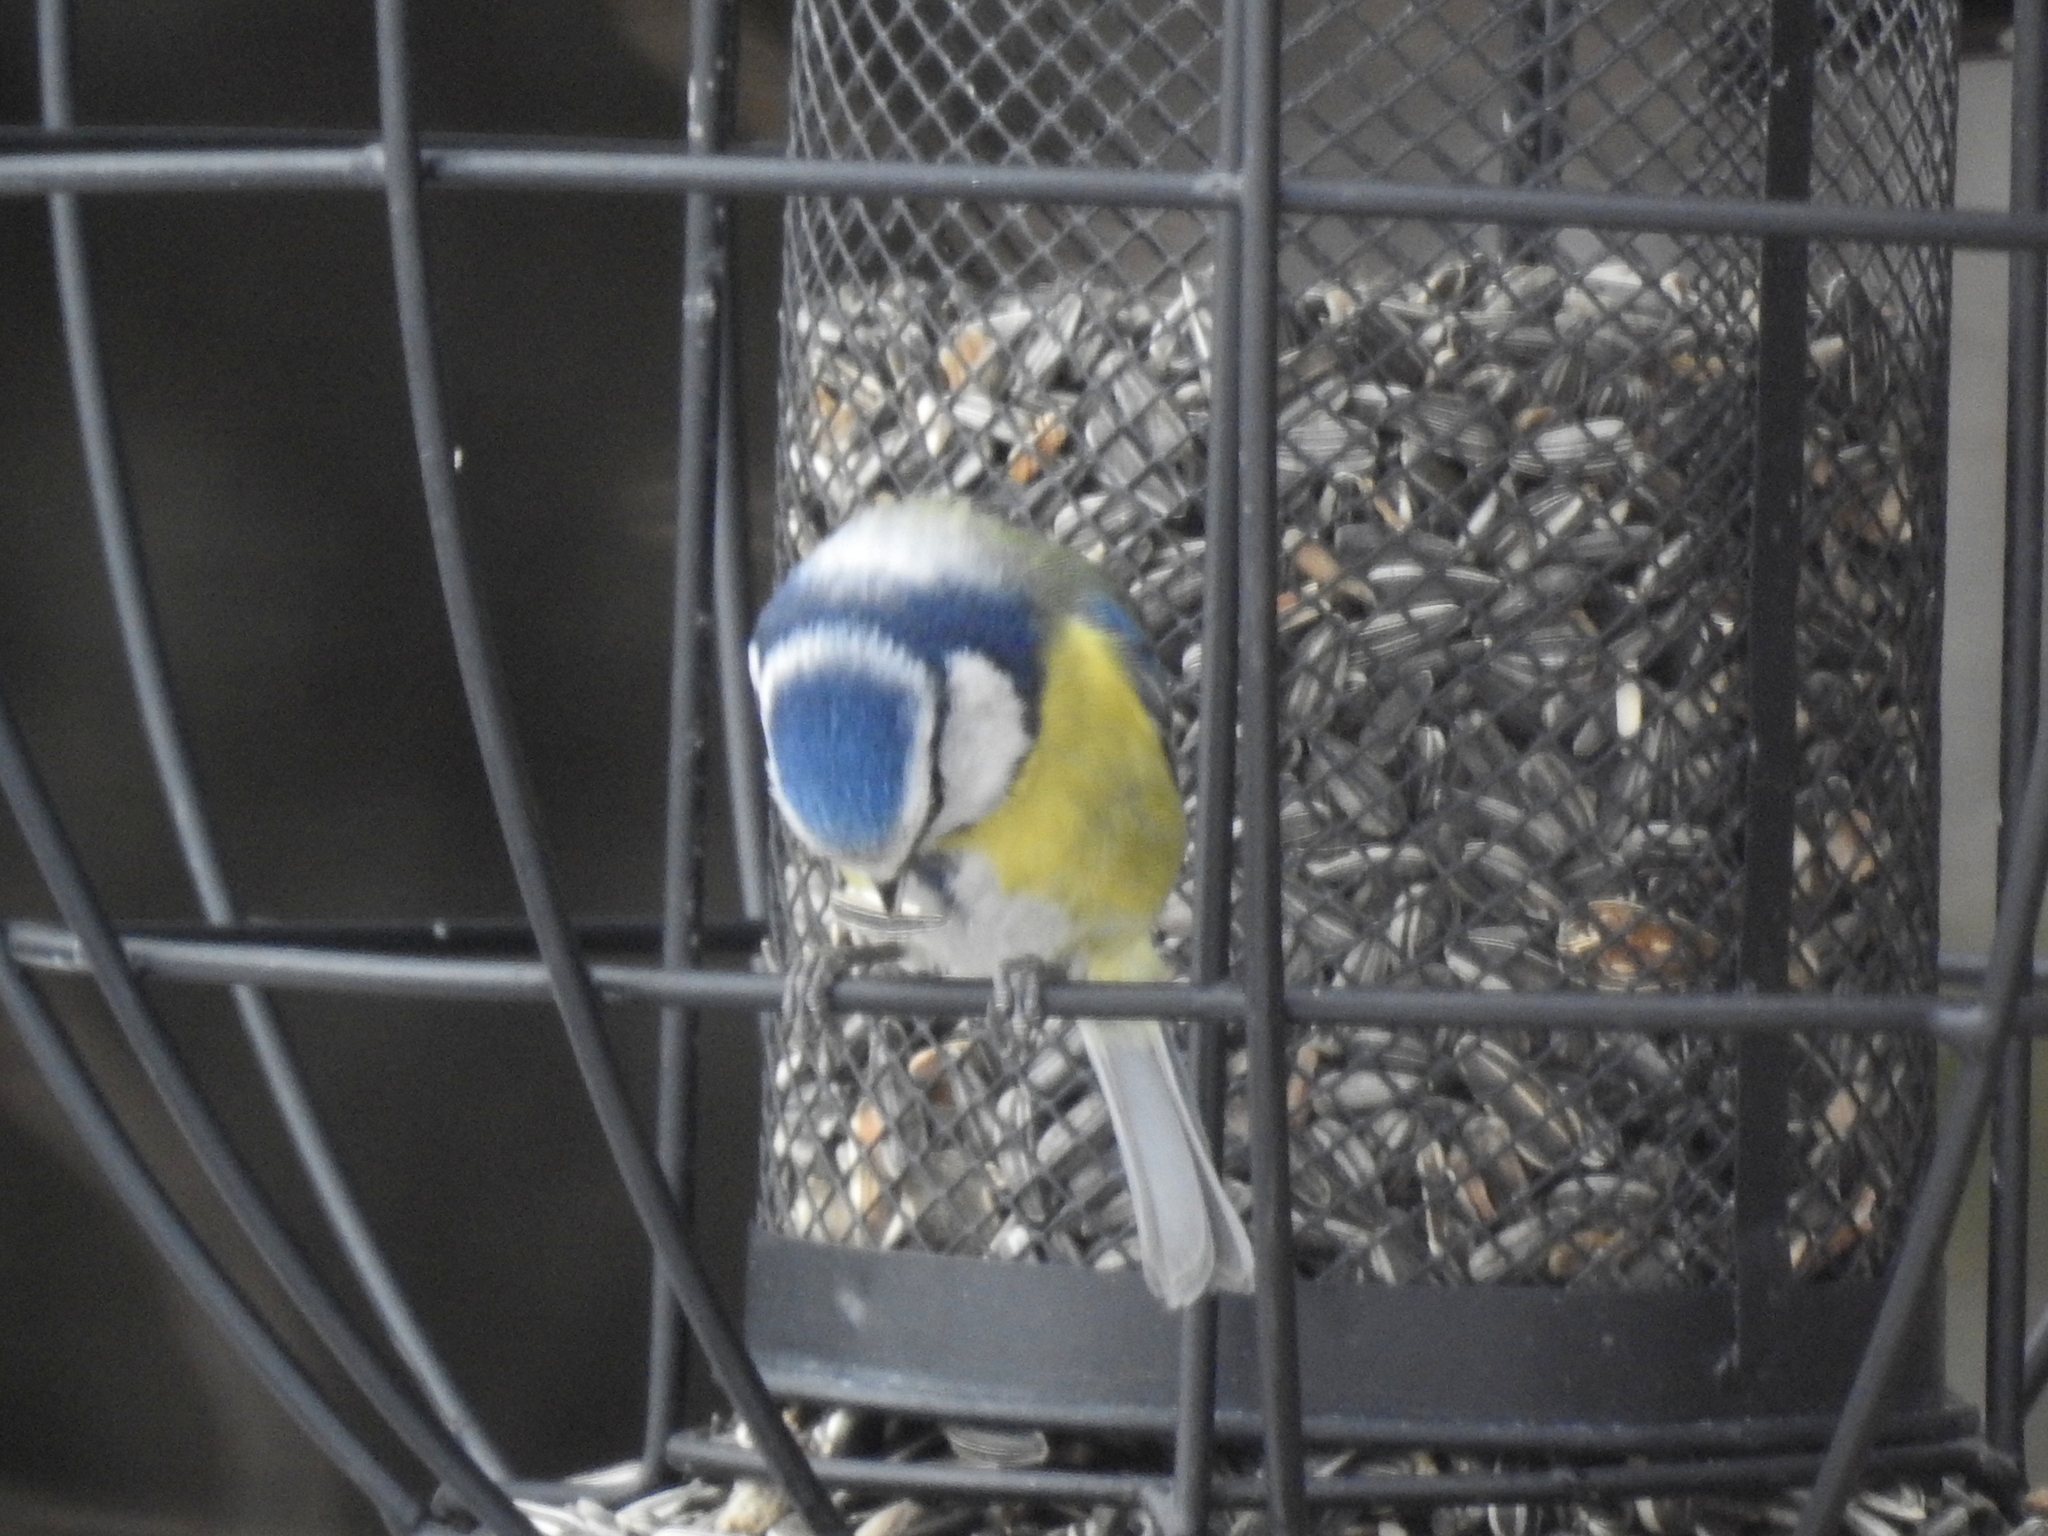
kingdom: Animalia
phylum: Chordata
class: Aves
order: Passeriformes
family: Paridae
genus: Cyanistes
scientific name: Cyanistes caeruleus
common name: Eurasian blue tit
